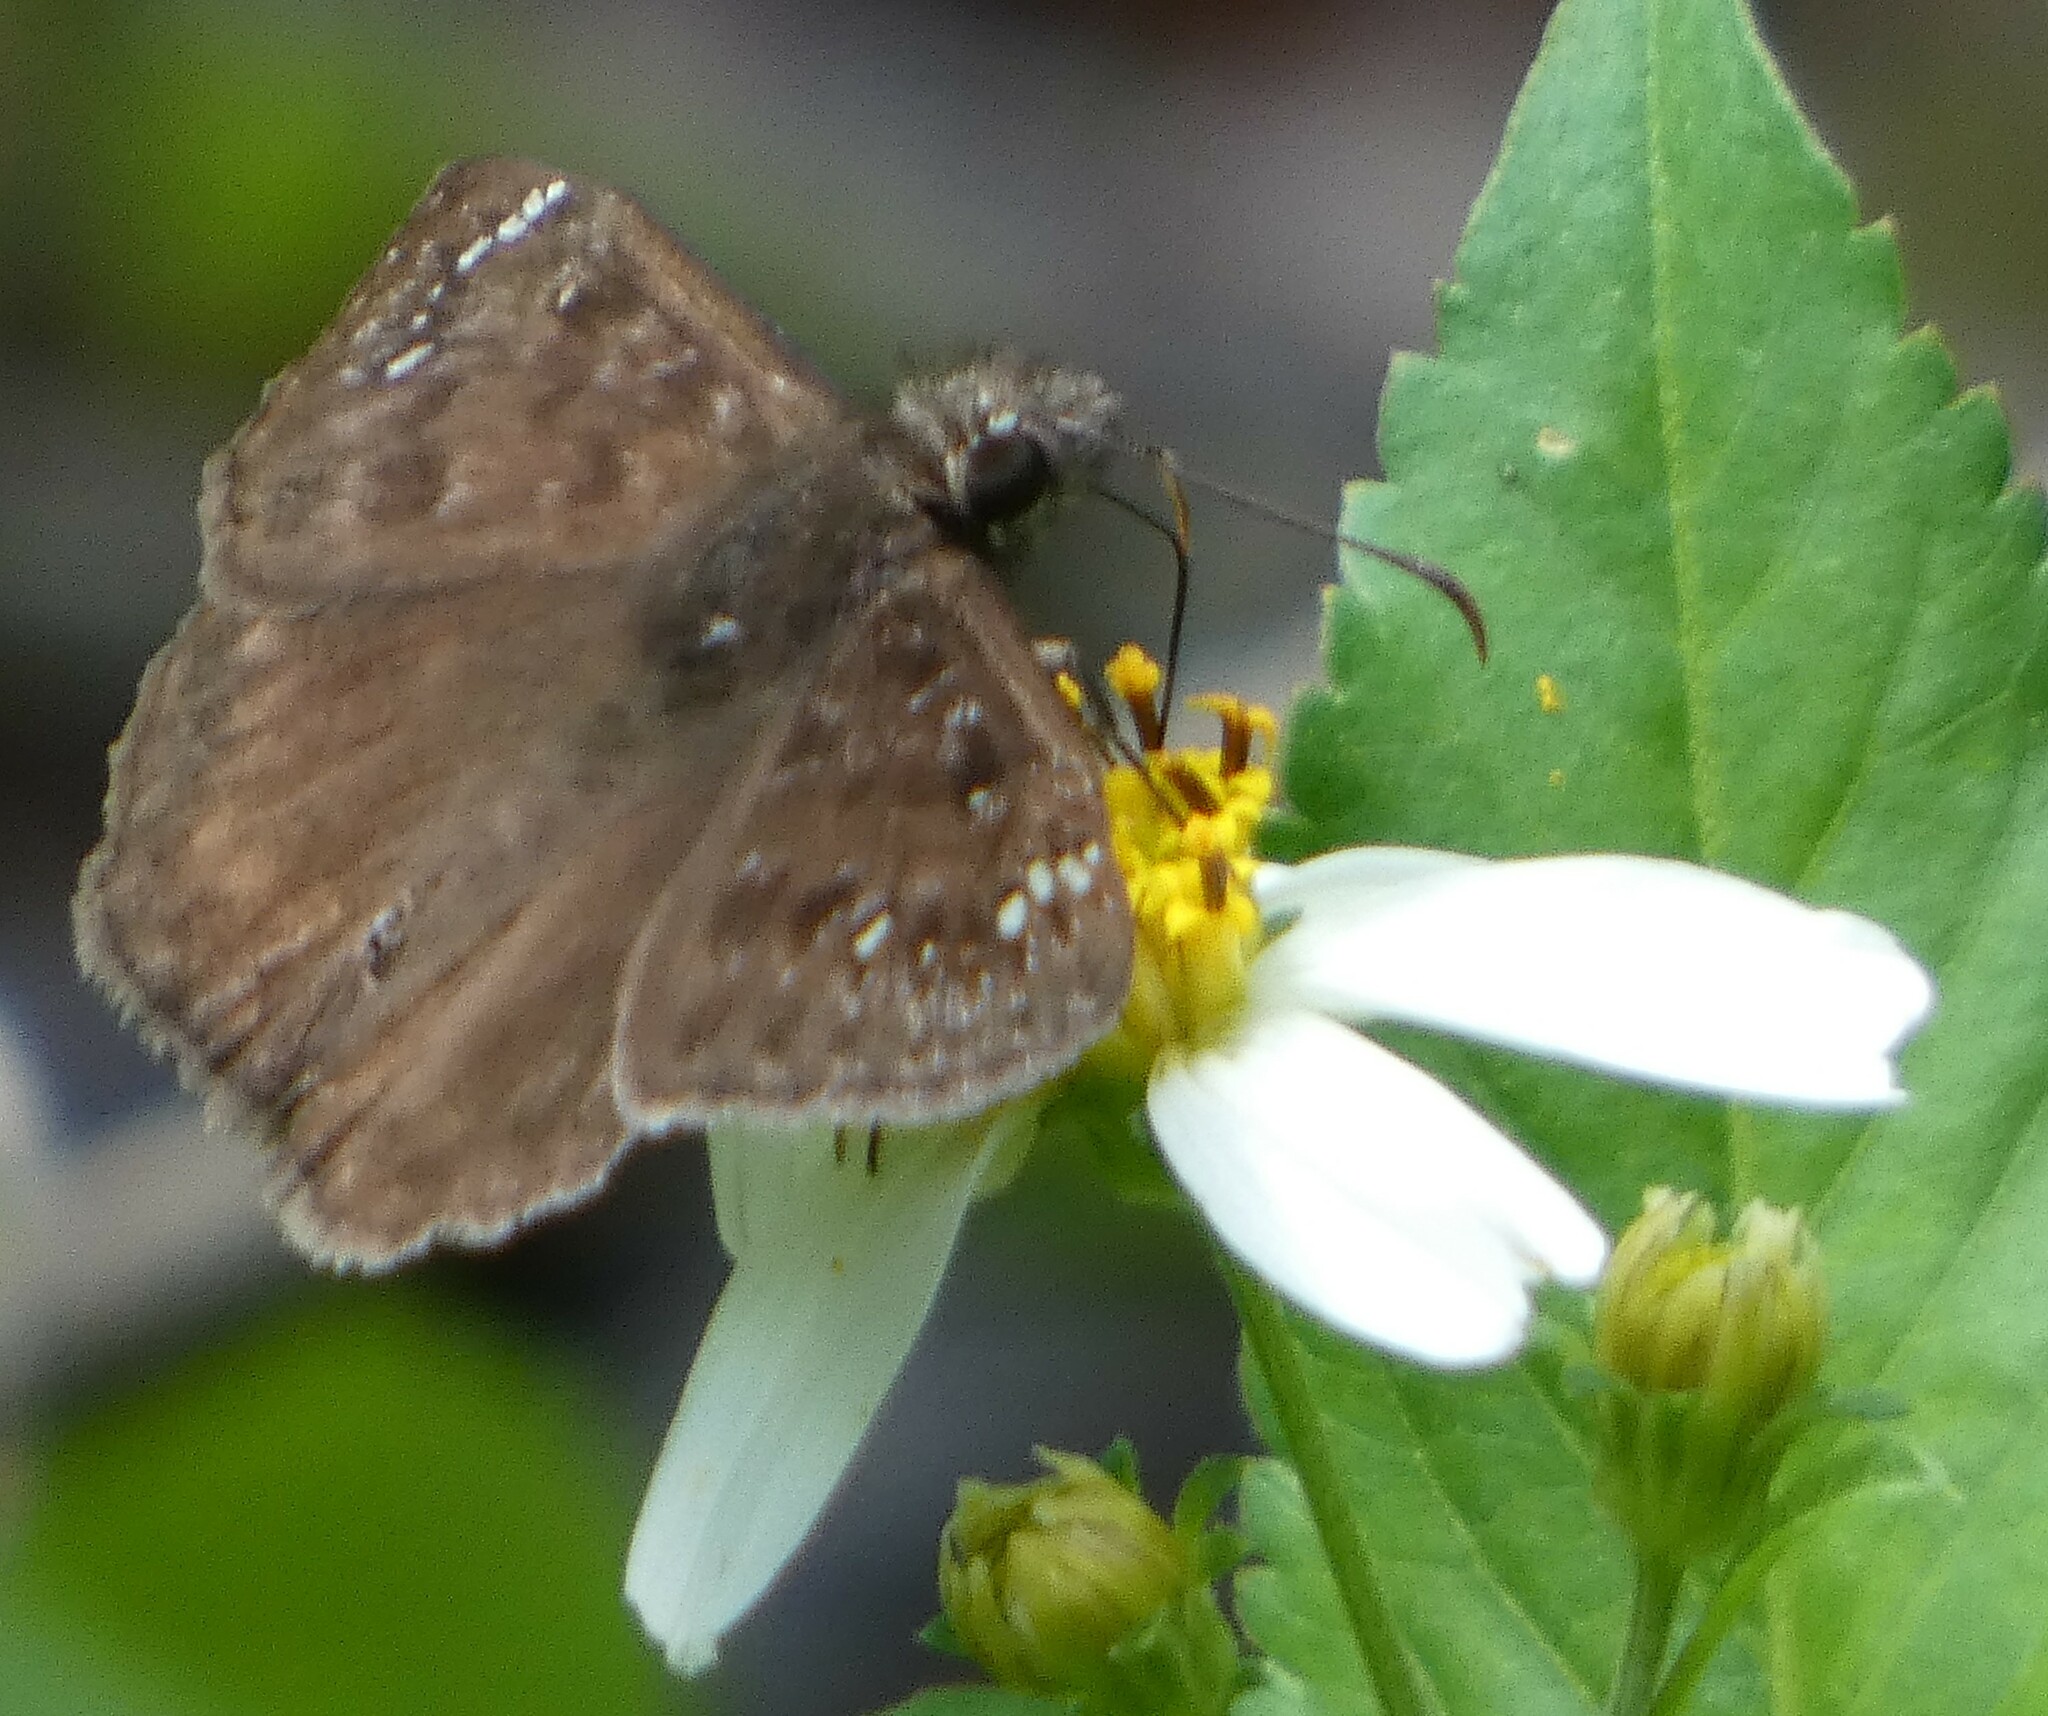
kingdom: Animalia
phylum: Arthropoda
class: Insecta
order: Lepidoptera
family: Hesperiidae
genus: Erynnis
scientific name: Erynnis horatius
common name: Horace's duskywing
